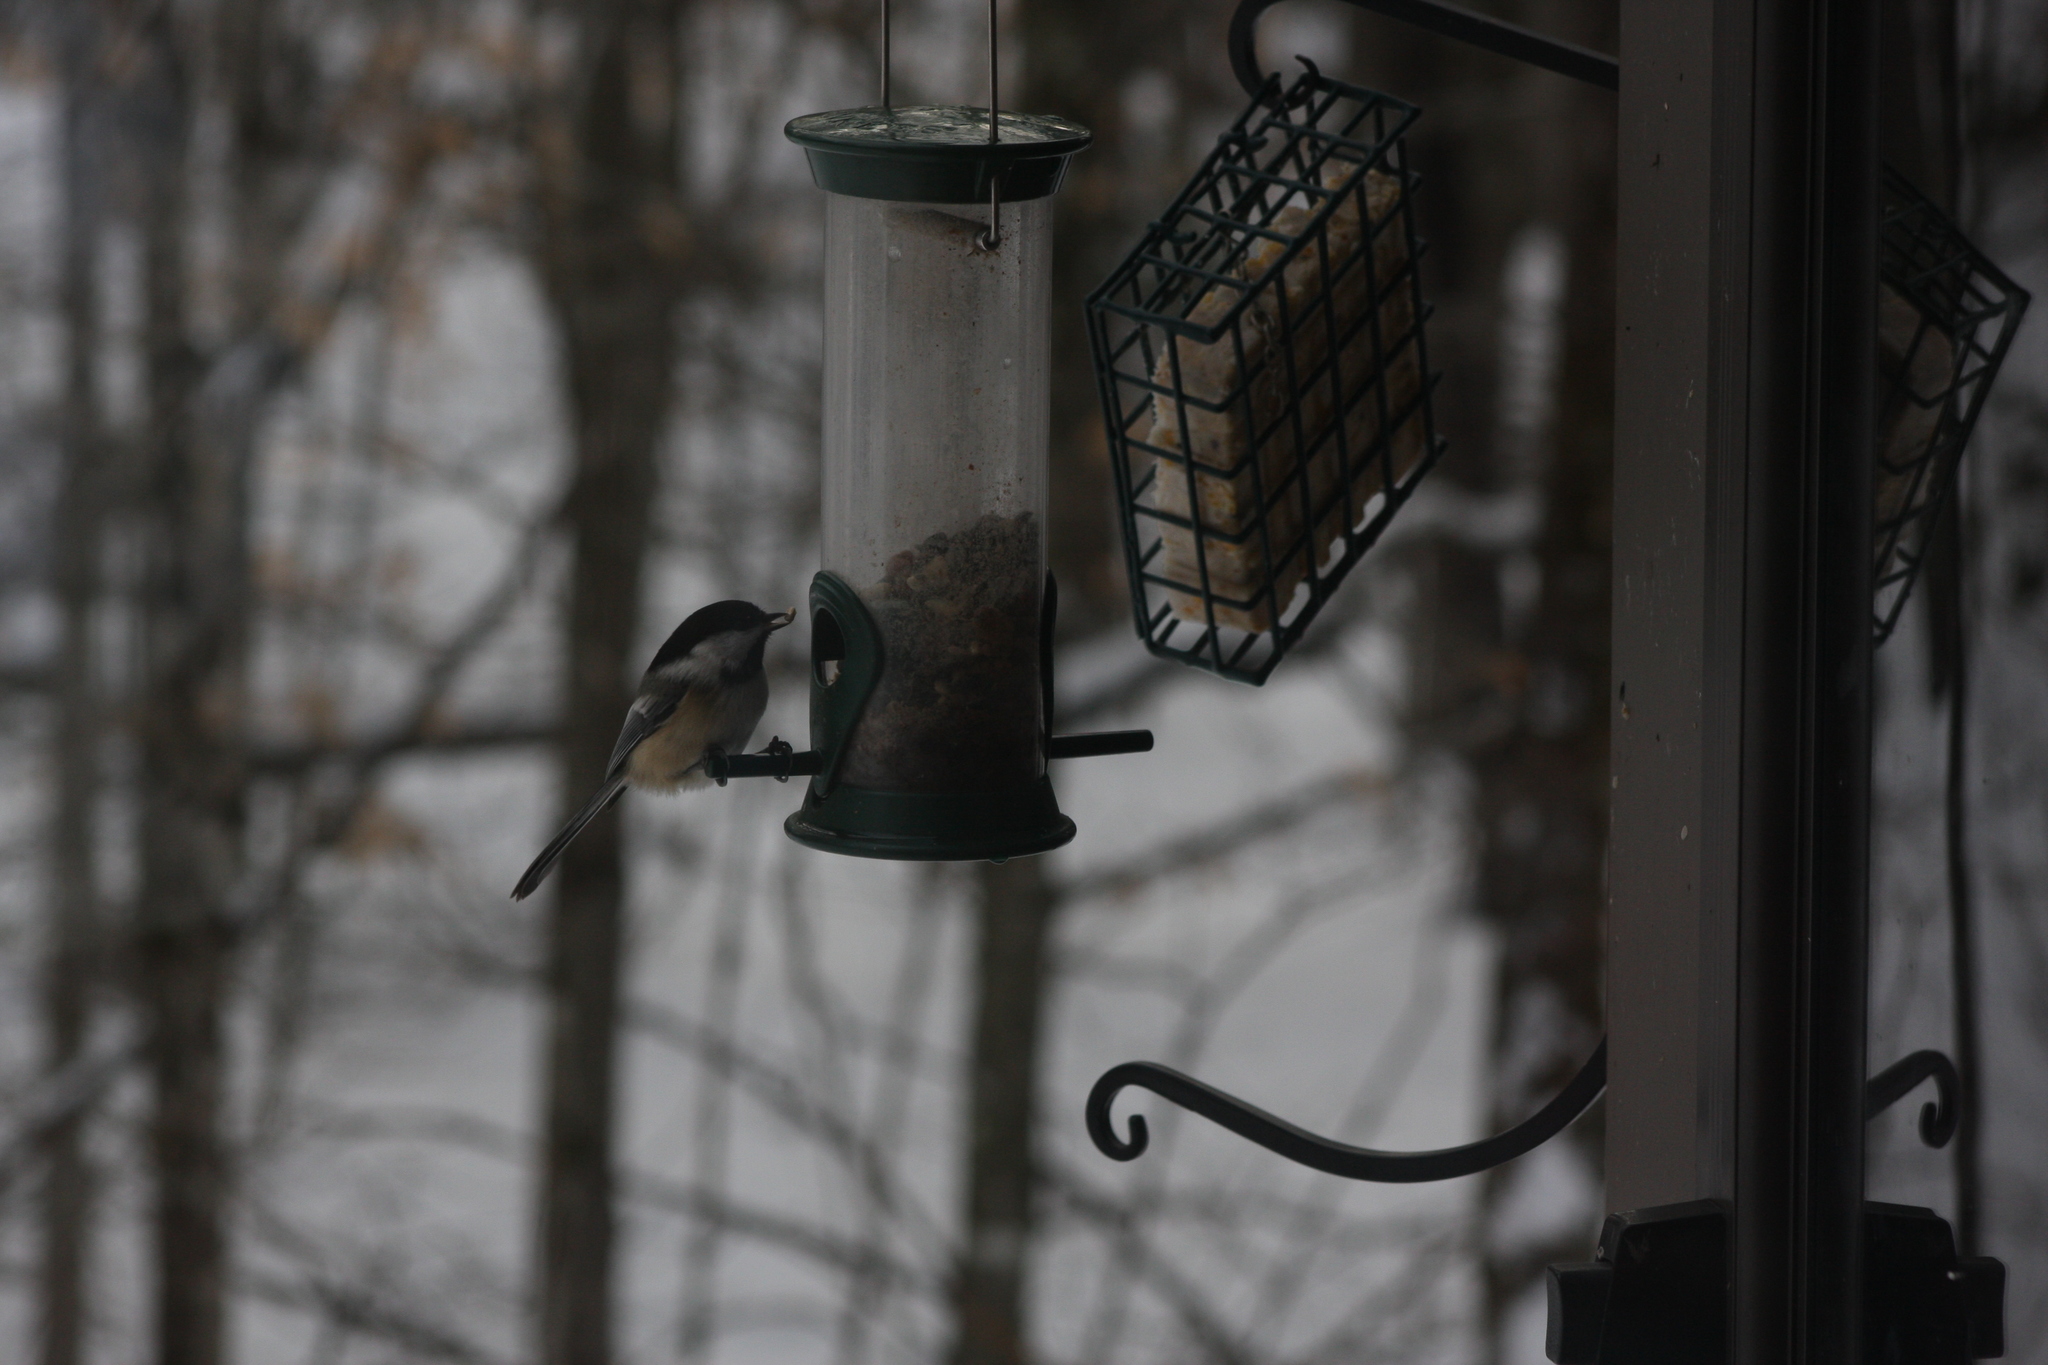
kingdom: Animalia
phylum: Chordata
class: Aves
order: Passeriformes
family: Paridae
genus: Poecile
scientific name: Poecile atricapillus
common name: Black-capped chickadee
